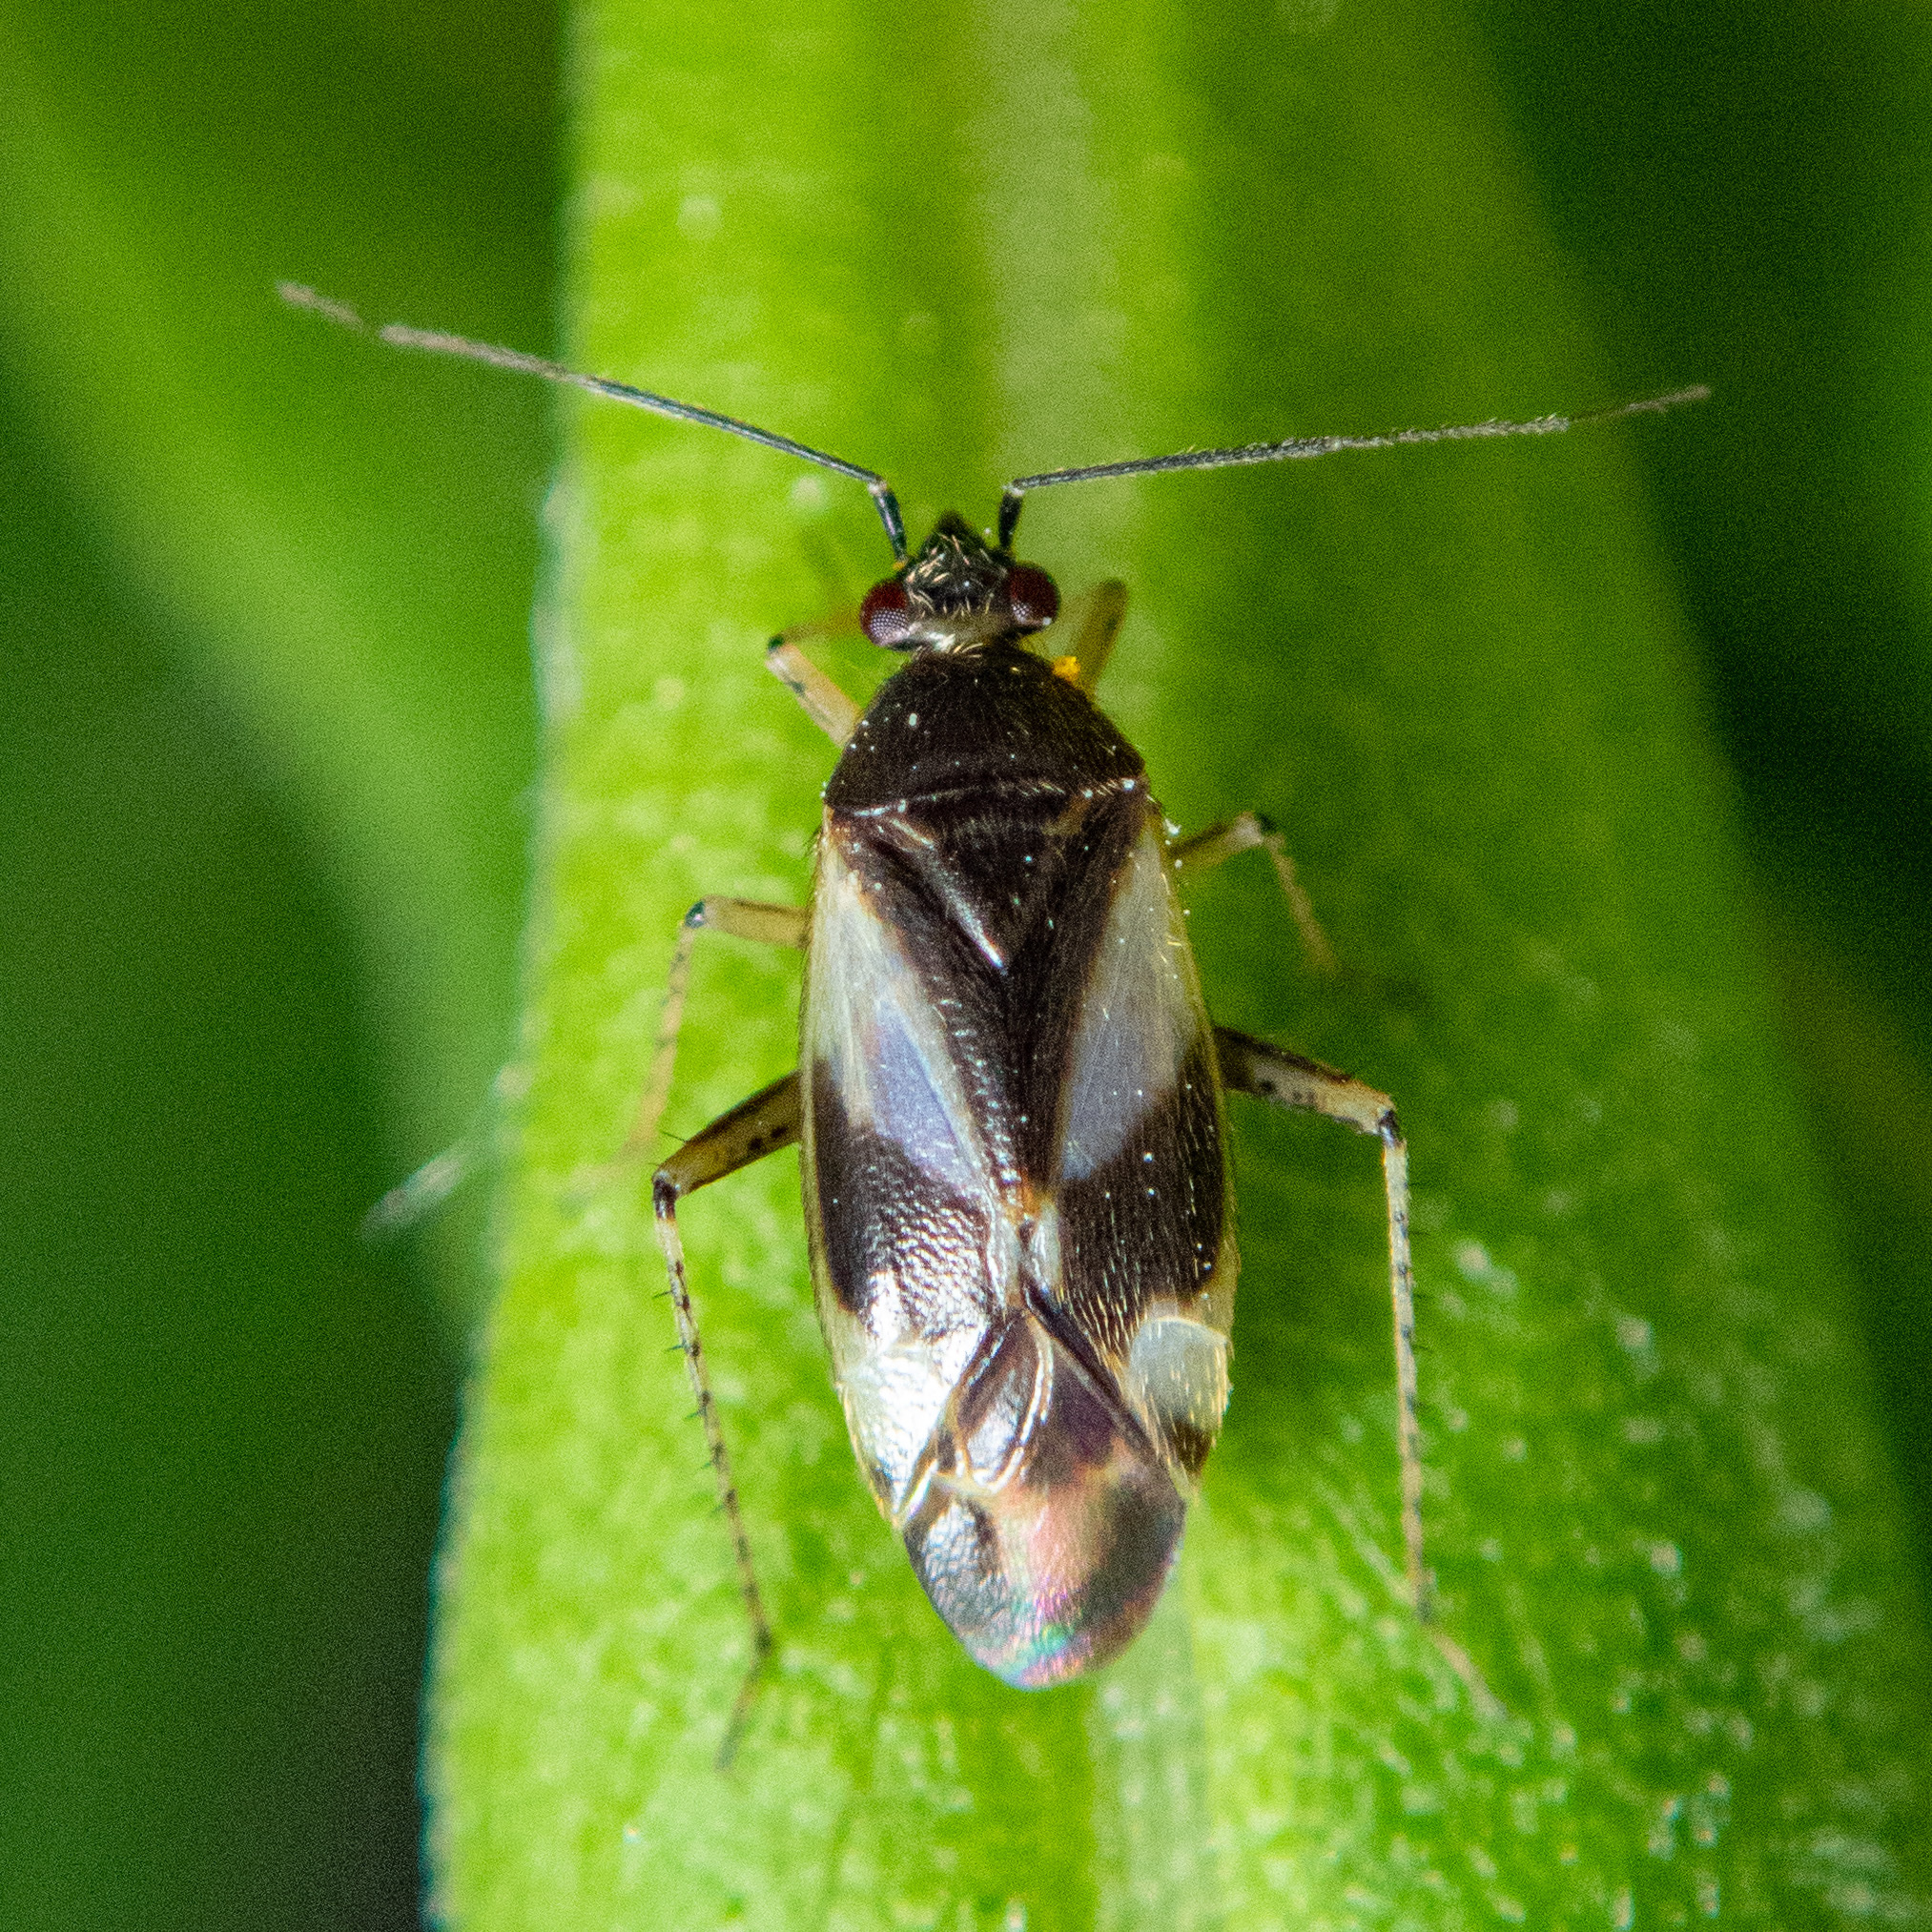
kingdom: Animalia
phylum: Arthropoda
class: Insecta
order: Hemiptera
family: Miridae
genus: Plagiognathus
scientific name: Plagiognathus obscurus
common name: Obscure plant bug
